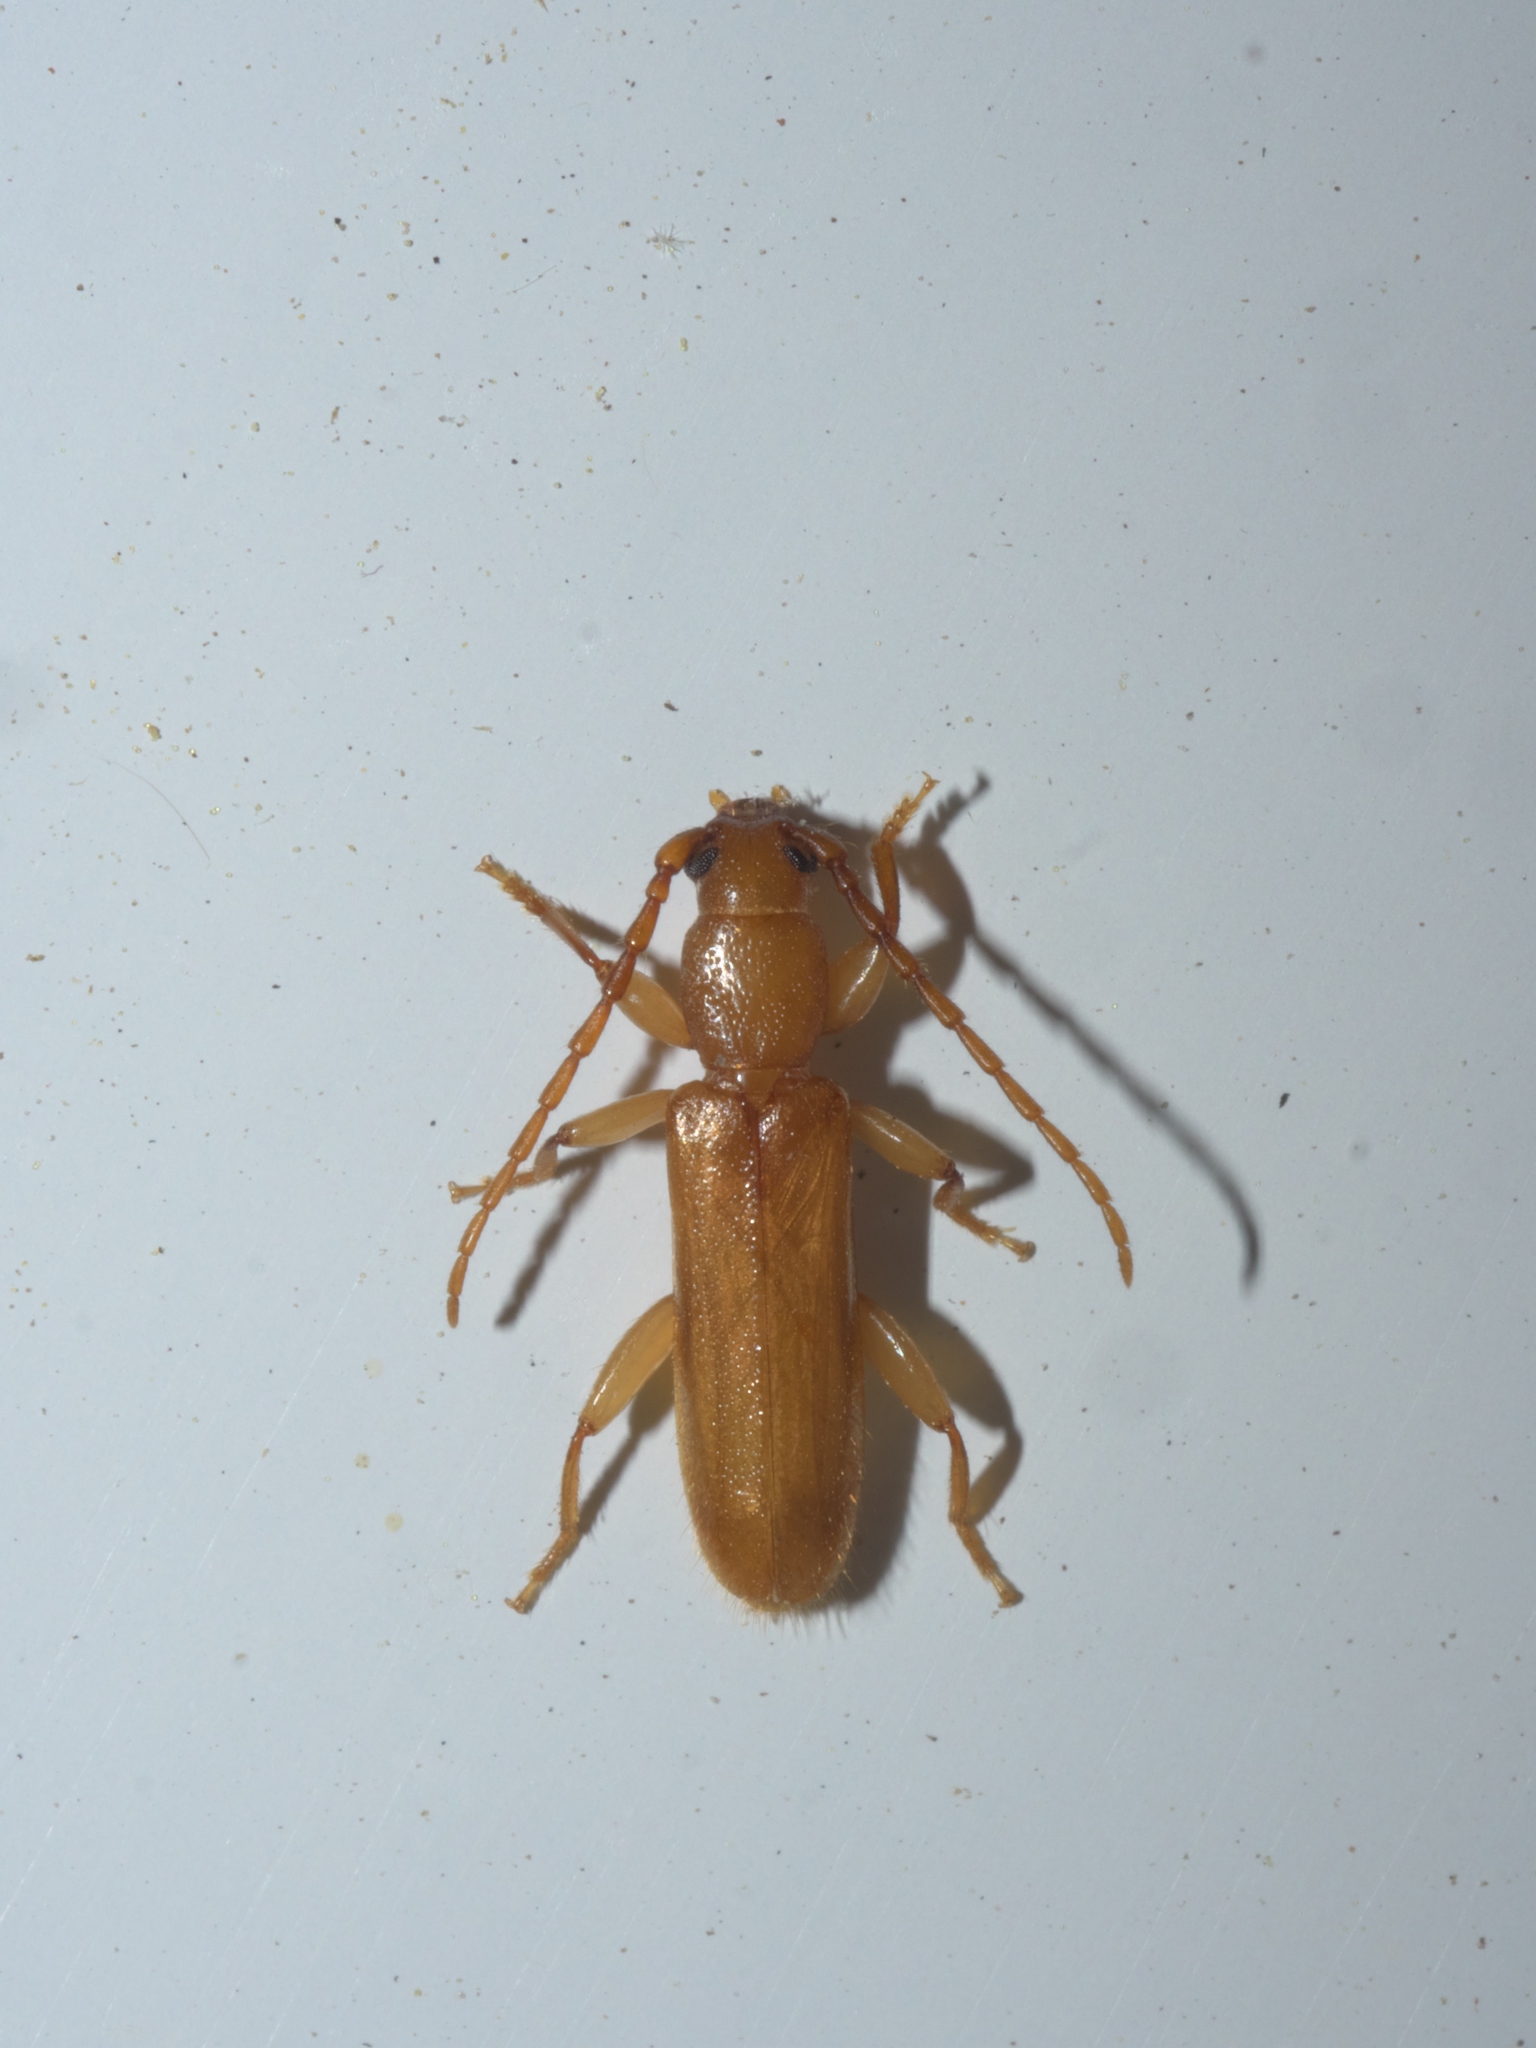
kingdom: Animalia
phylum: Arthropoda
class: Insecta
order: Coleoptera
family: Cerambycidae
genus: Smodicum
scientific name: Smodicum cucujiforme
